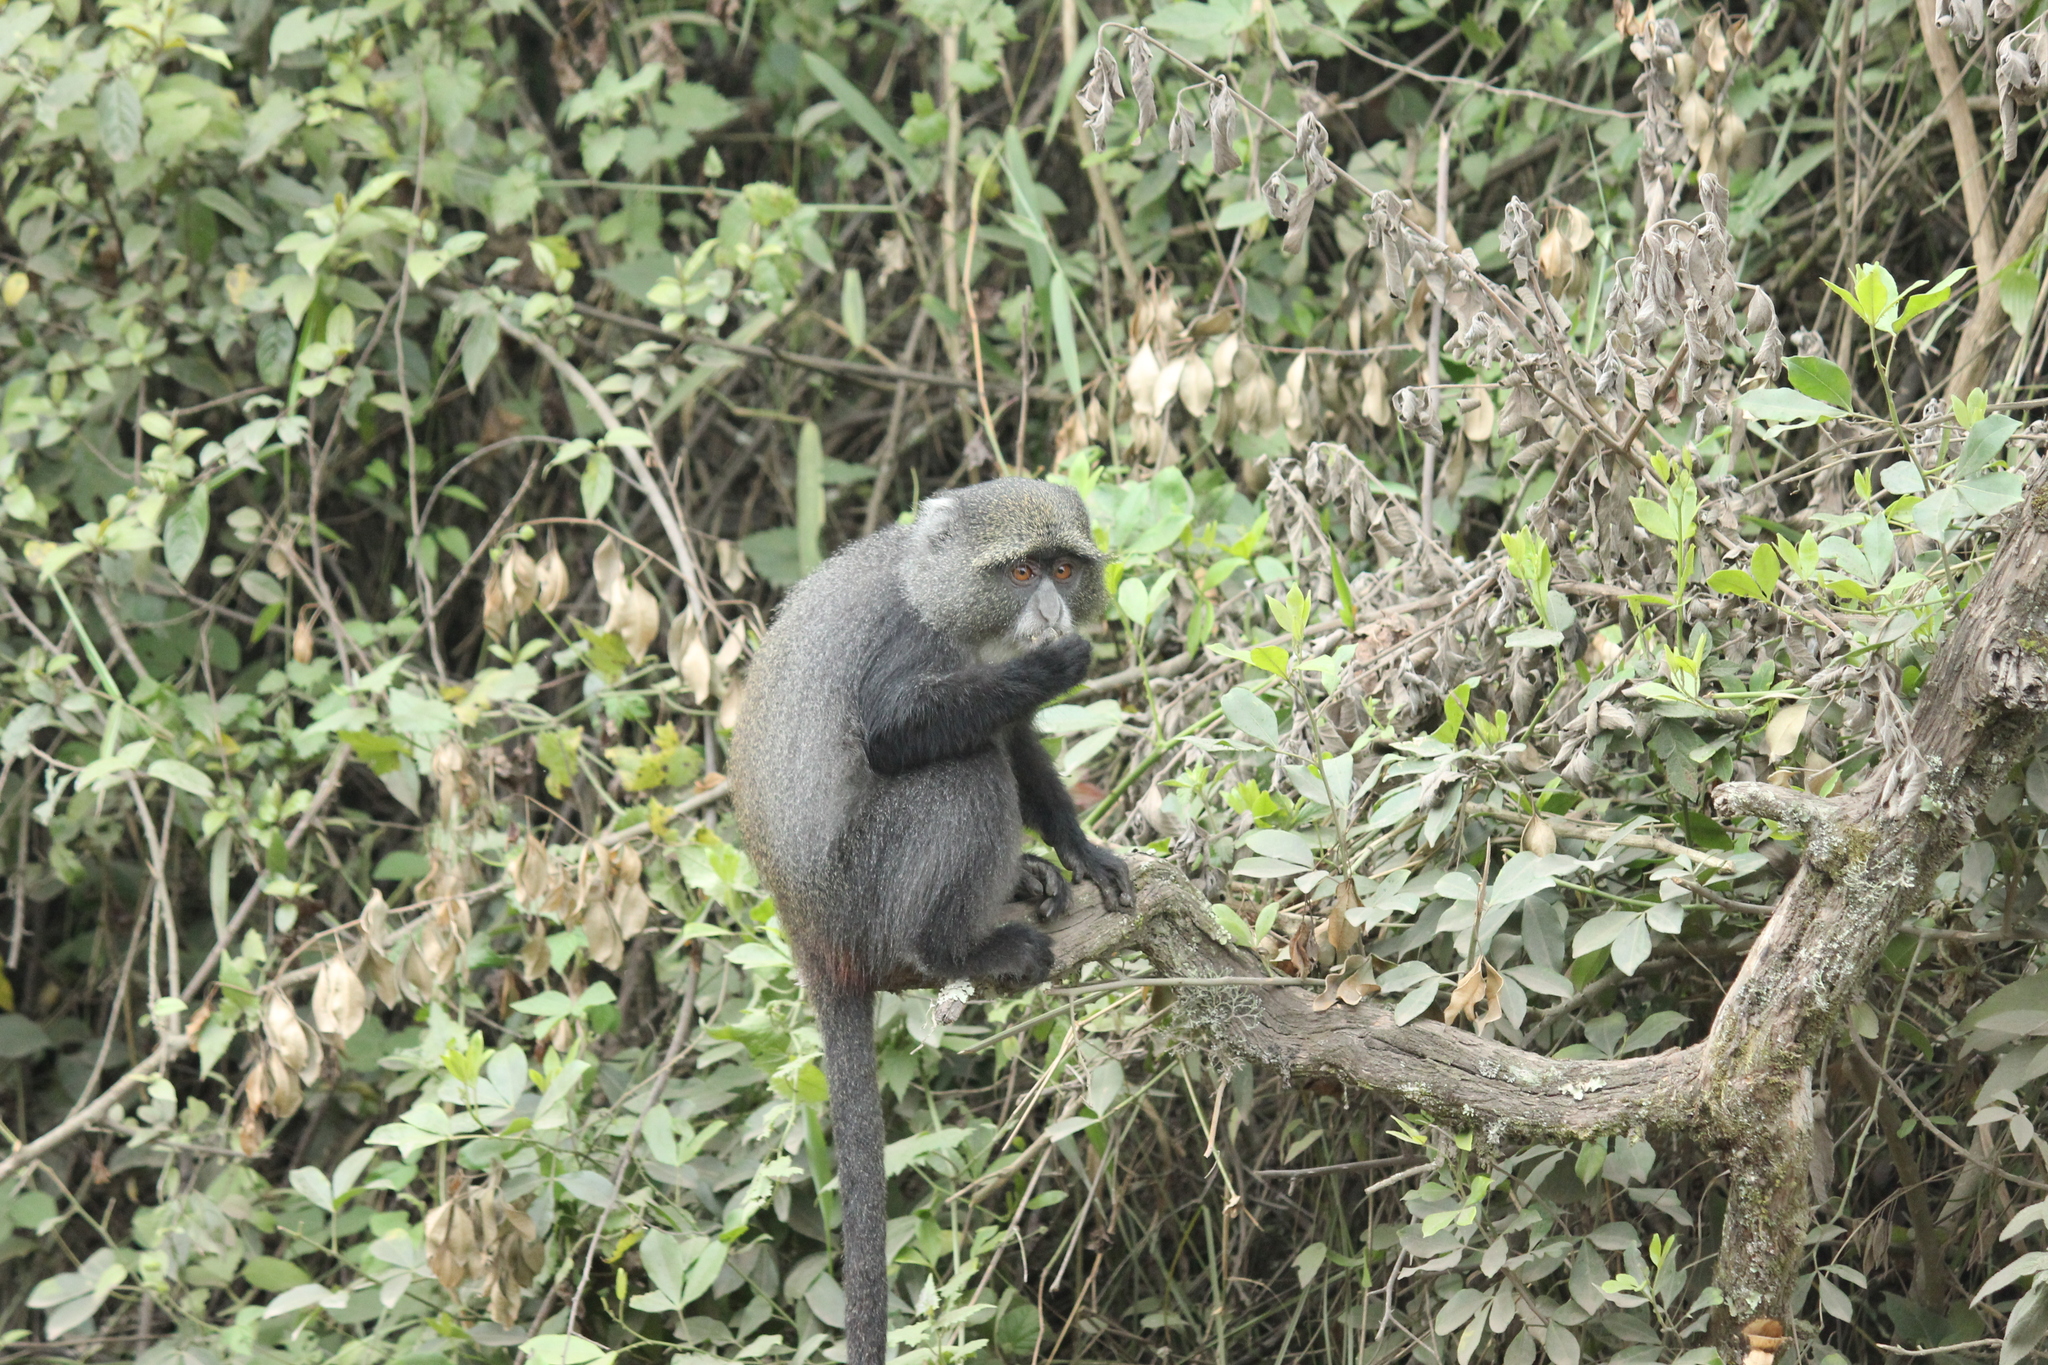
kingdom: Animalia
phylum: Chordata
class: Mammalia
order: Primates
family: Cercopithecidae
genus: Cercopithecus
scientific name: Cercopithecus mitis
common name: Blue monkey
